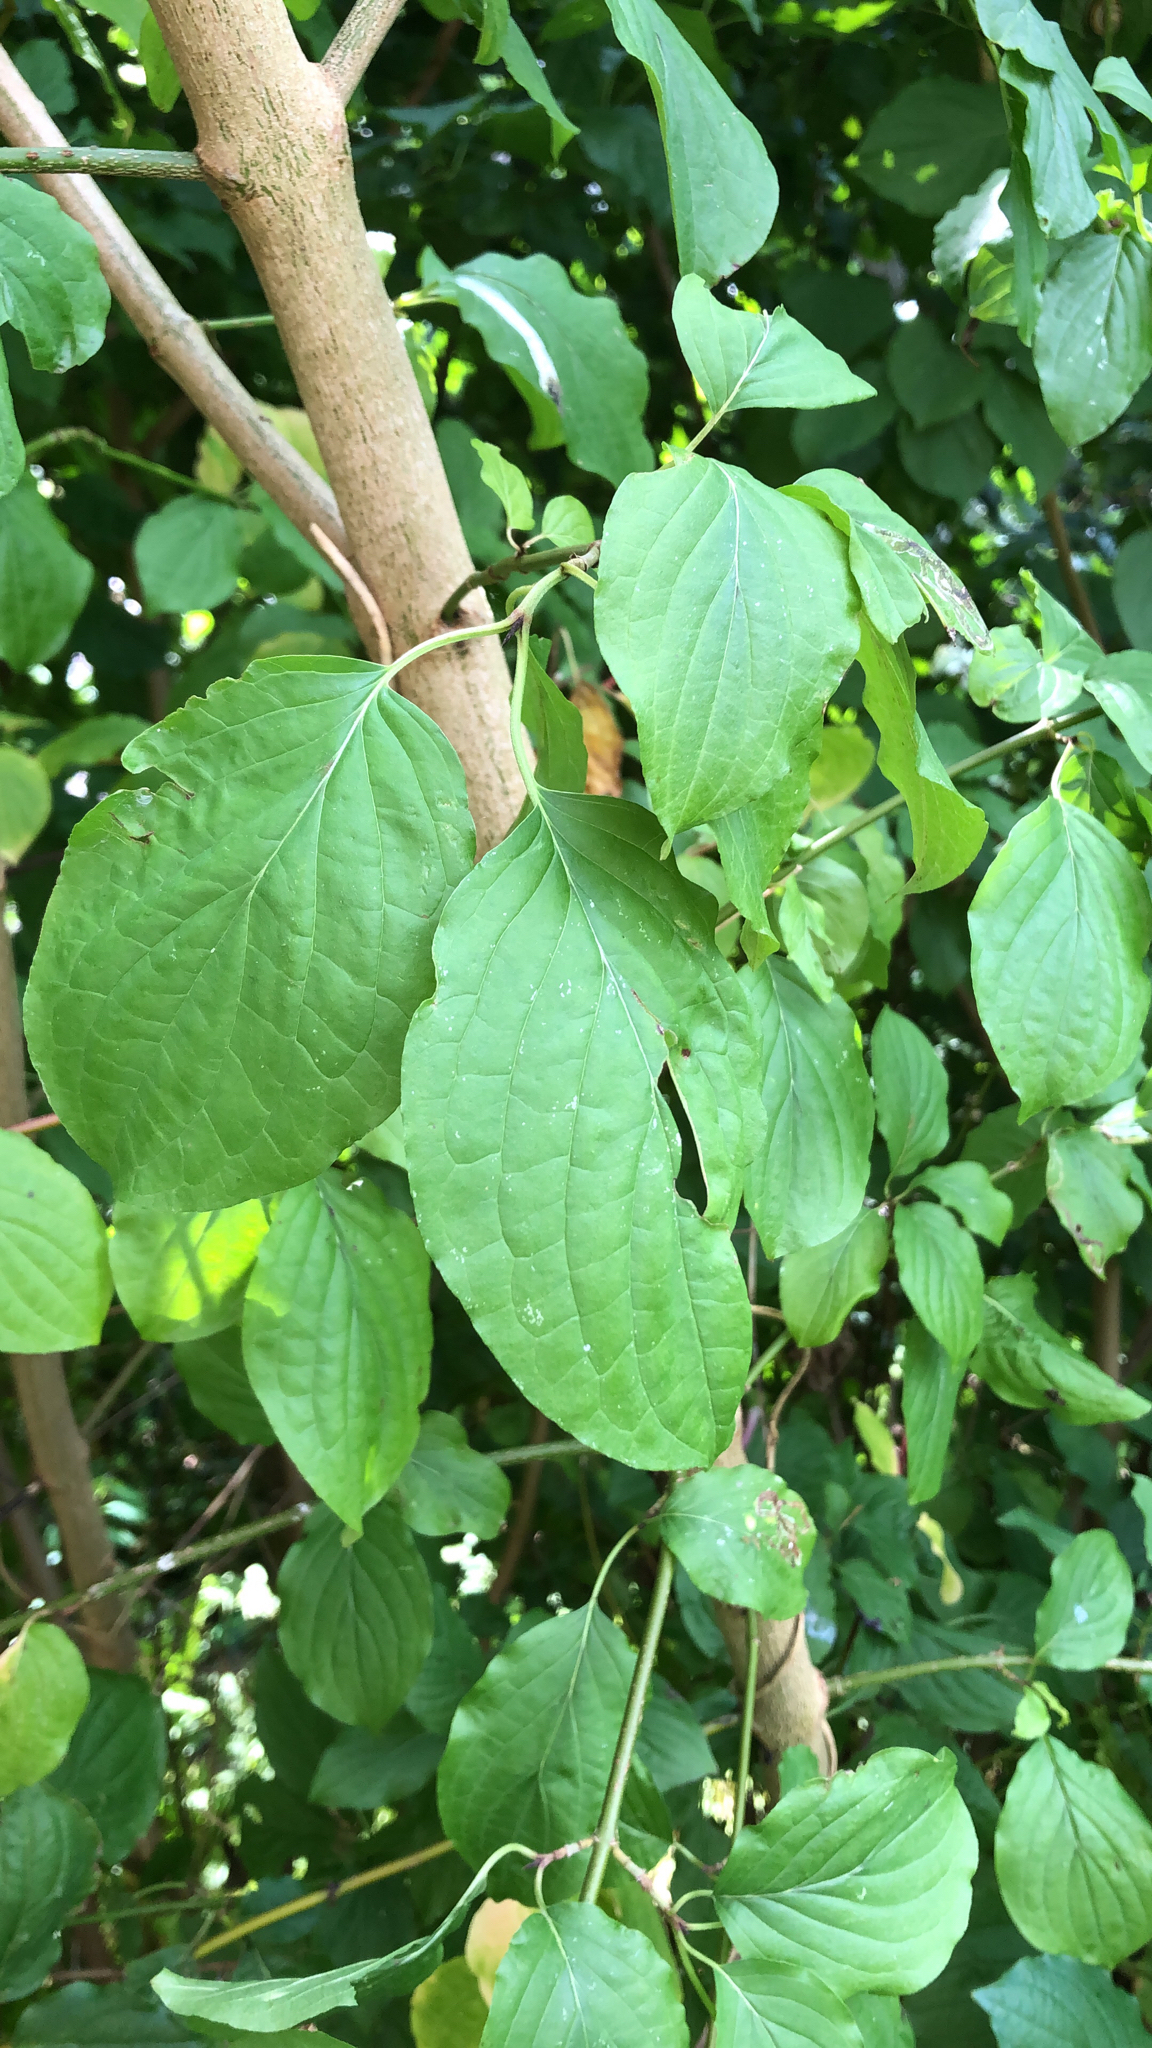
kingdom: Plantae
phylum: Tracheophyta
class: Magnoliopsida
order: Cornales
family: Cornaceae
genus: Cornus
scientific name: Cornus sanguinea
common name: Dogwood
